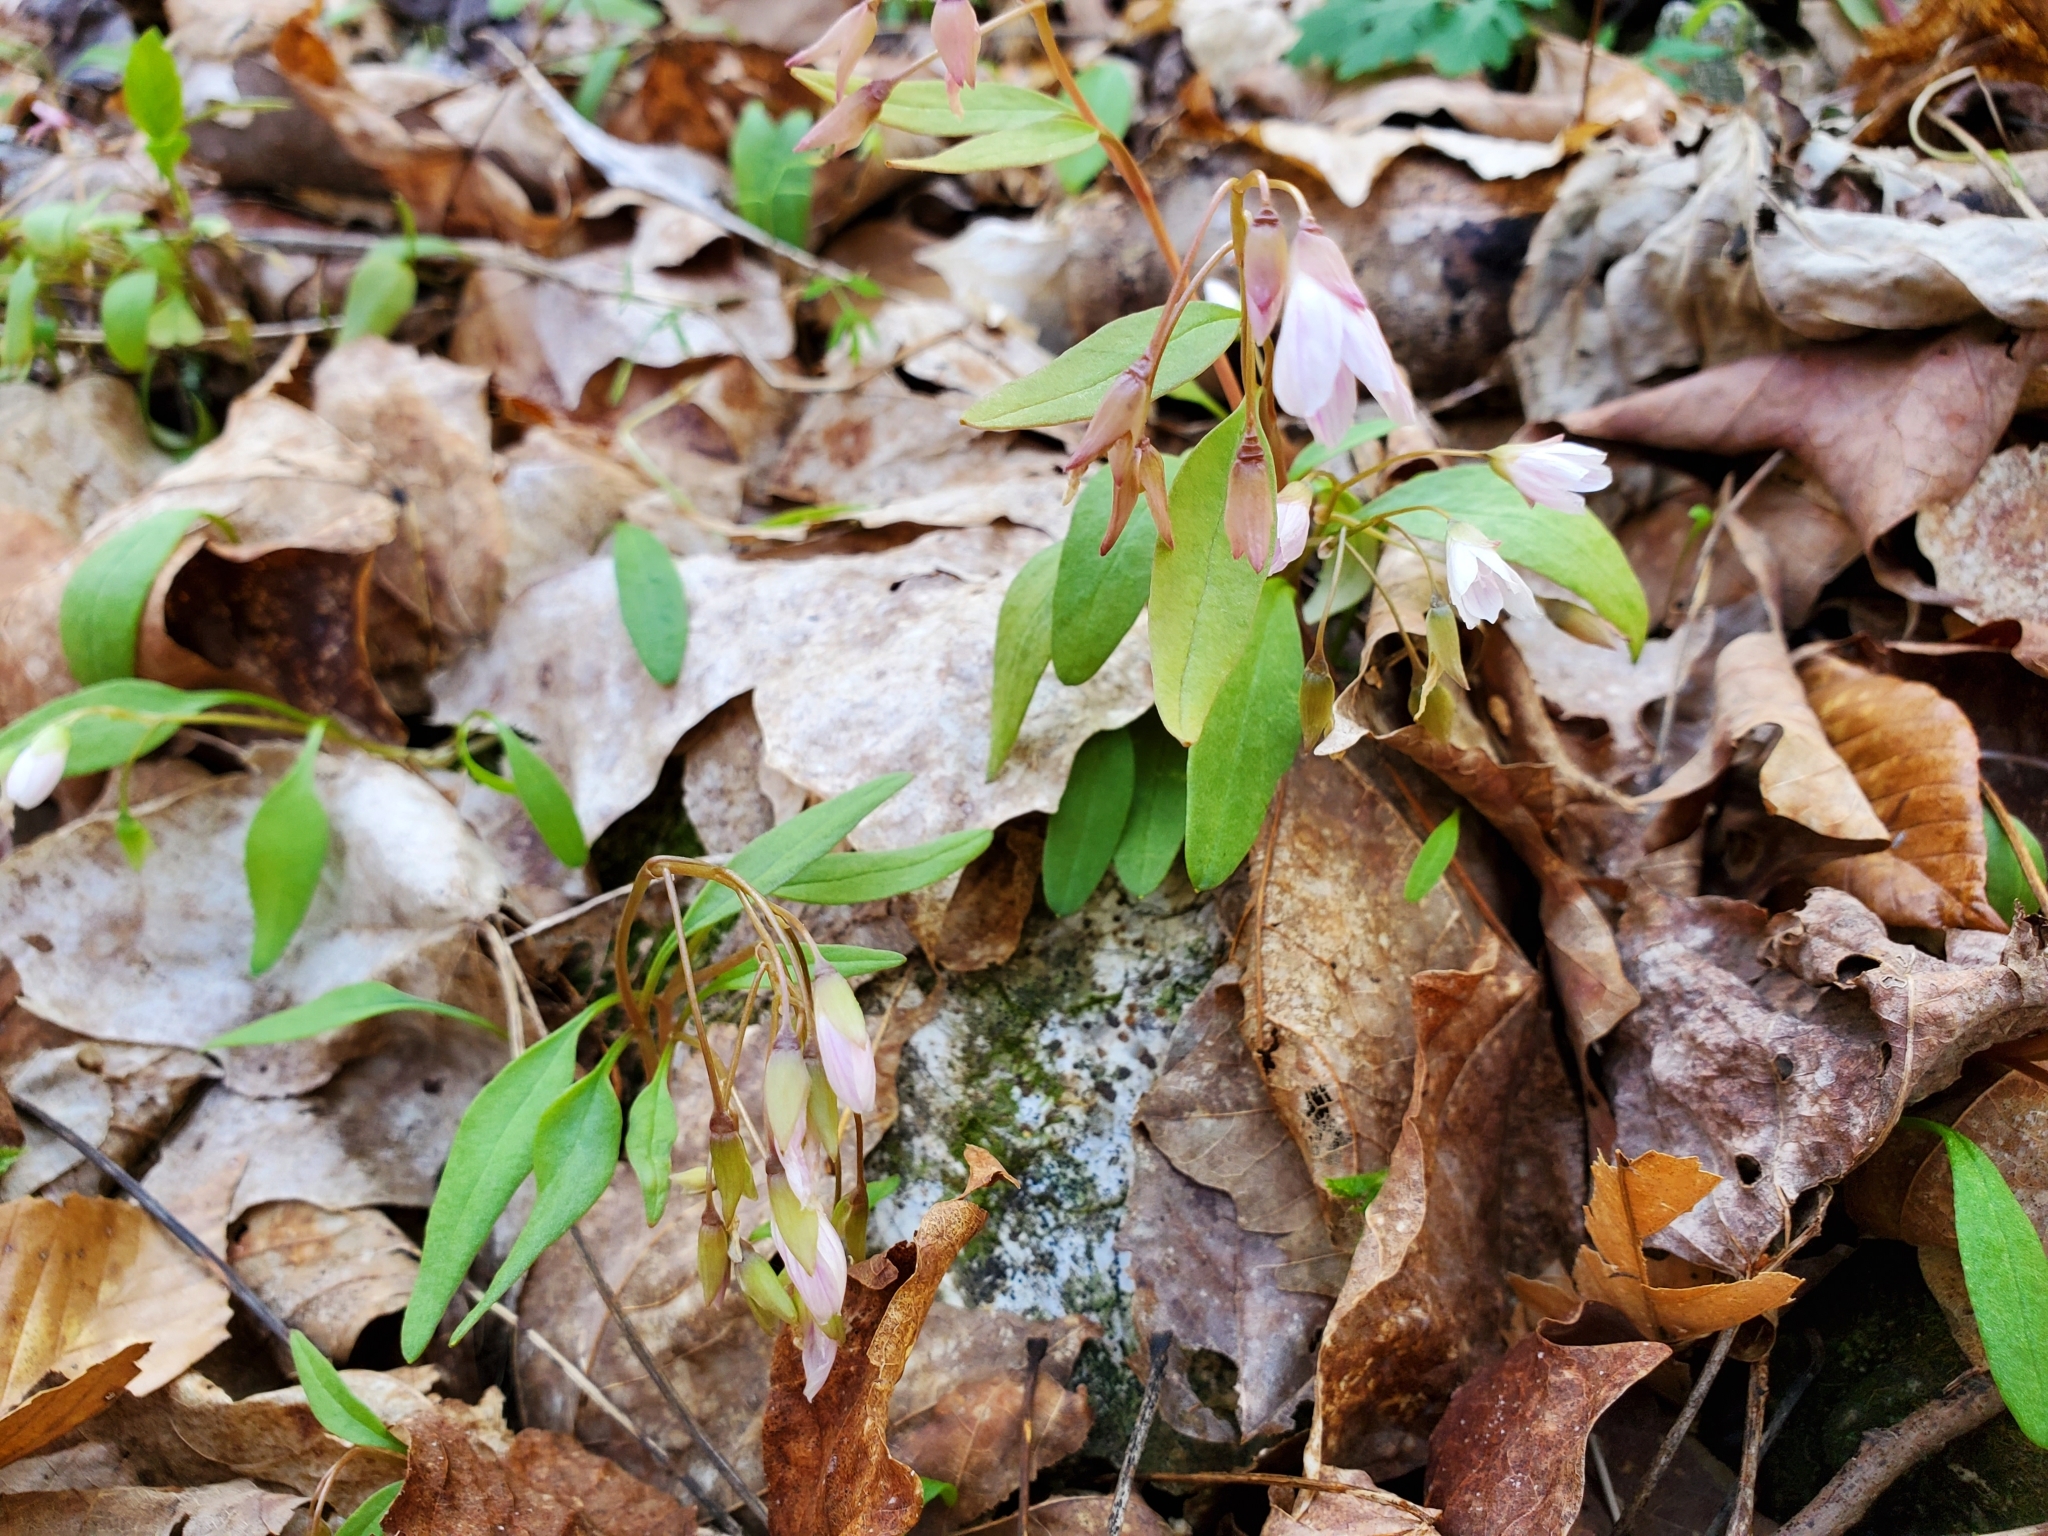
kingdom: Plantae
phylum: Tracheophyta
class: Magnoliopsida
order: Caryophyllales
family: Montiaceae
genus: Claytonia
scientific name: Claytonia caroliniana
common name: Carolina spring beauty
